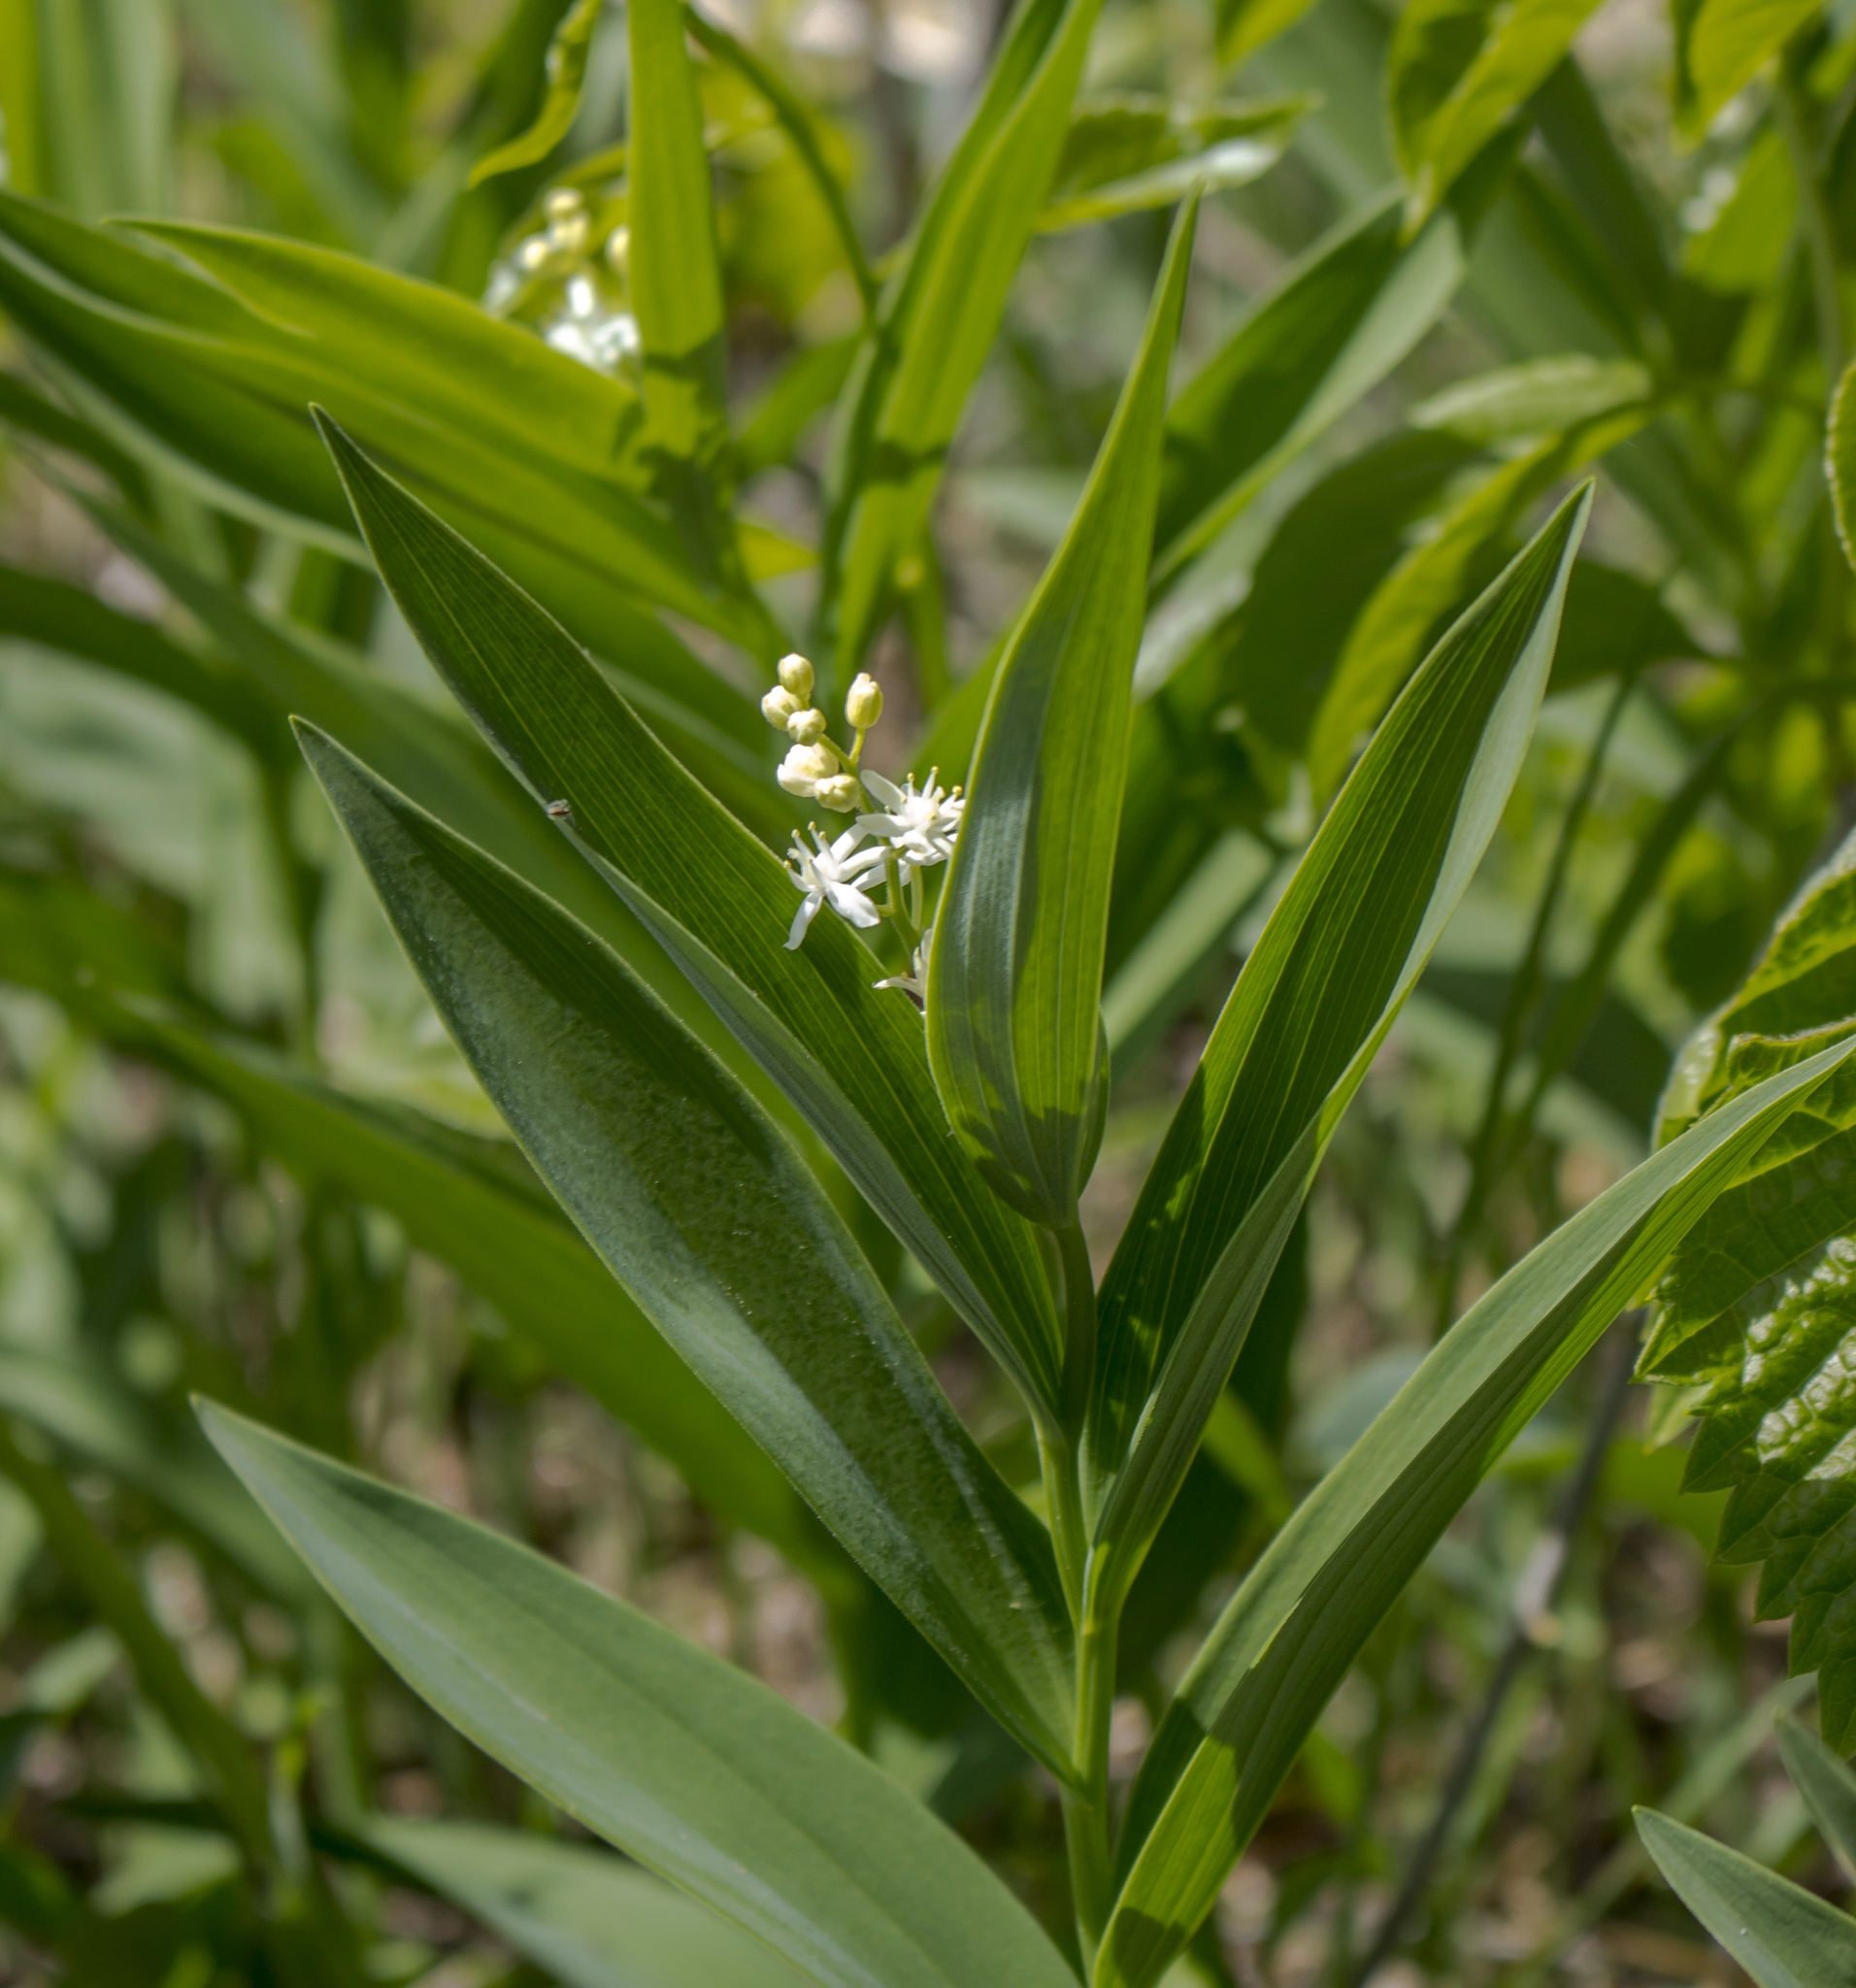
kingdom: Plantae
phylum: Tracheophyta
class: Liliopsida
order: Asparagales
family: Asparagaceae
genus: Maianthemum
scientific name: Maianthemum stellatum
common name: Little false solomon's seal
